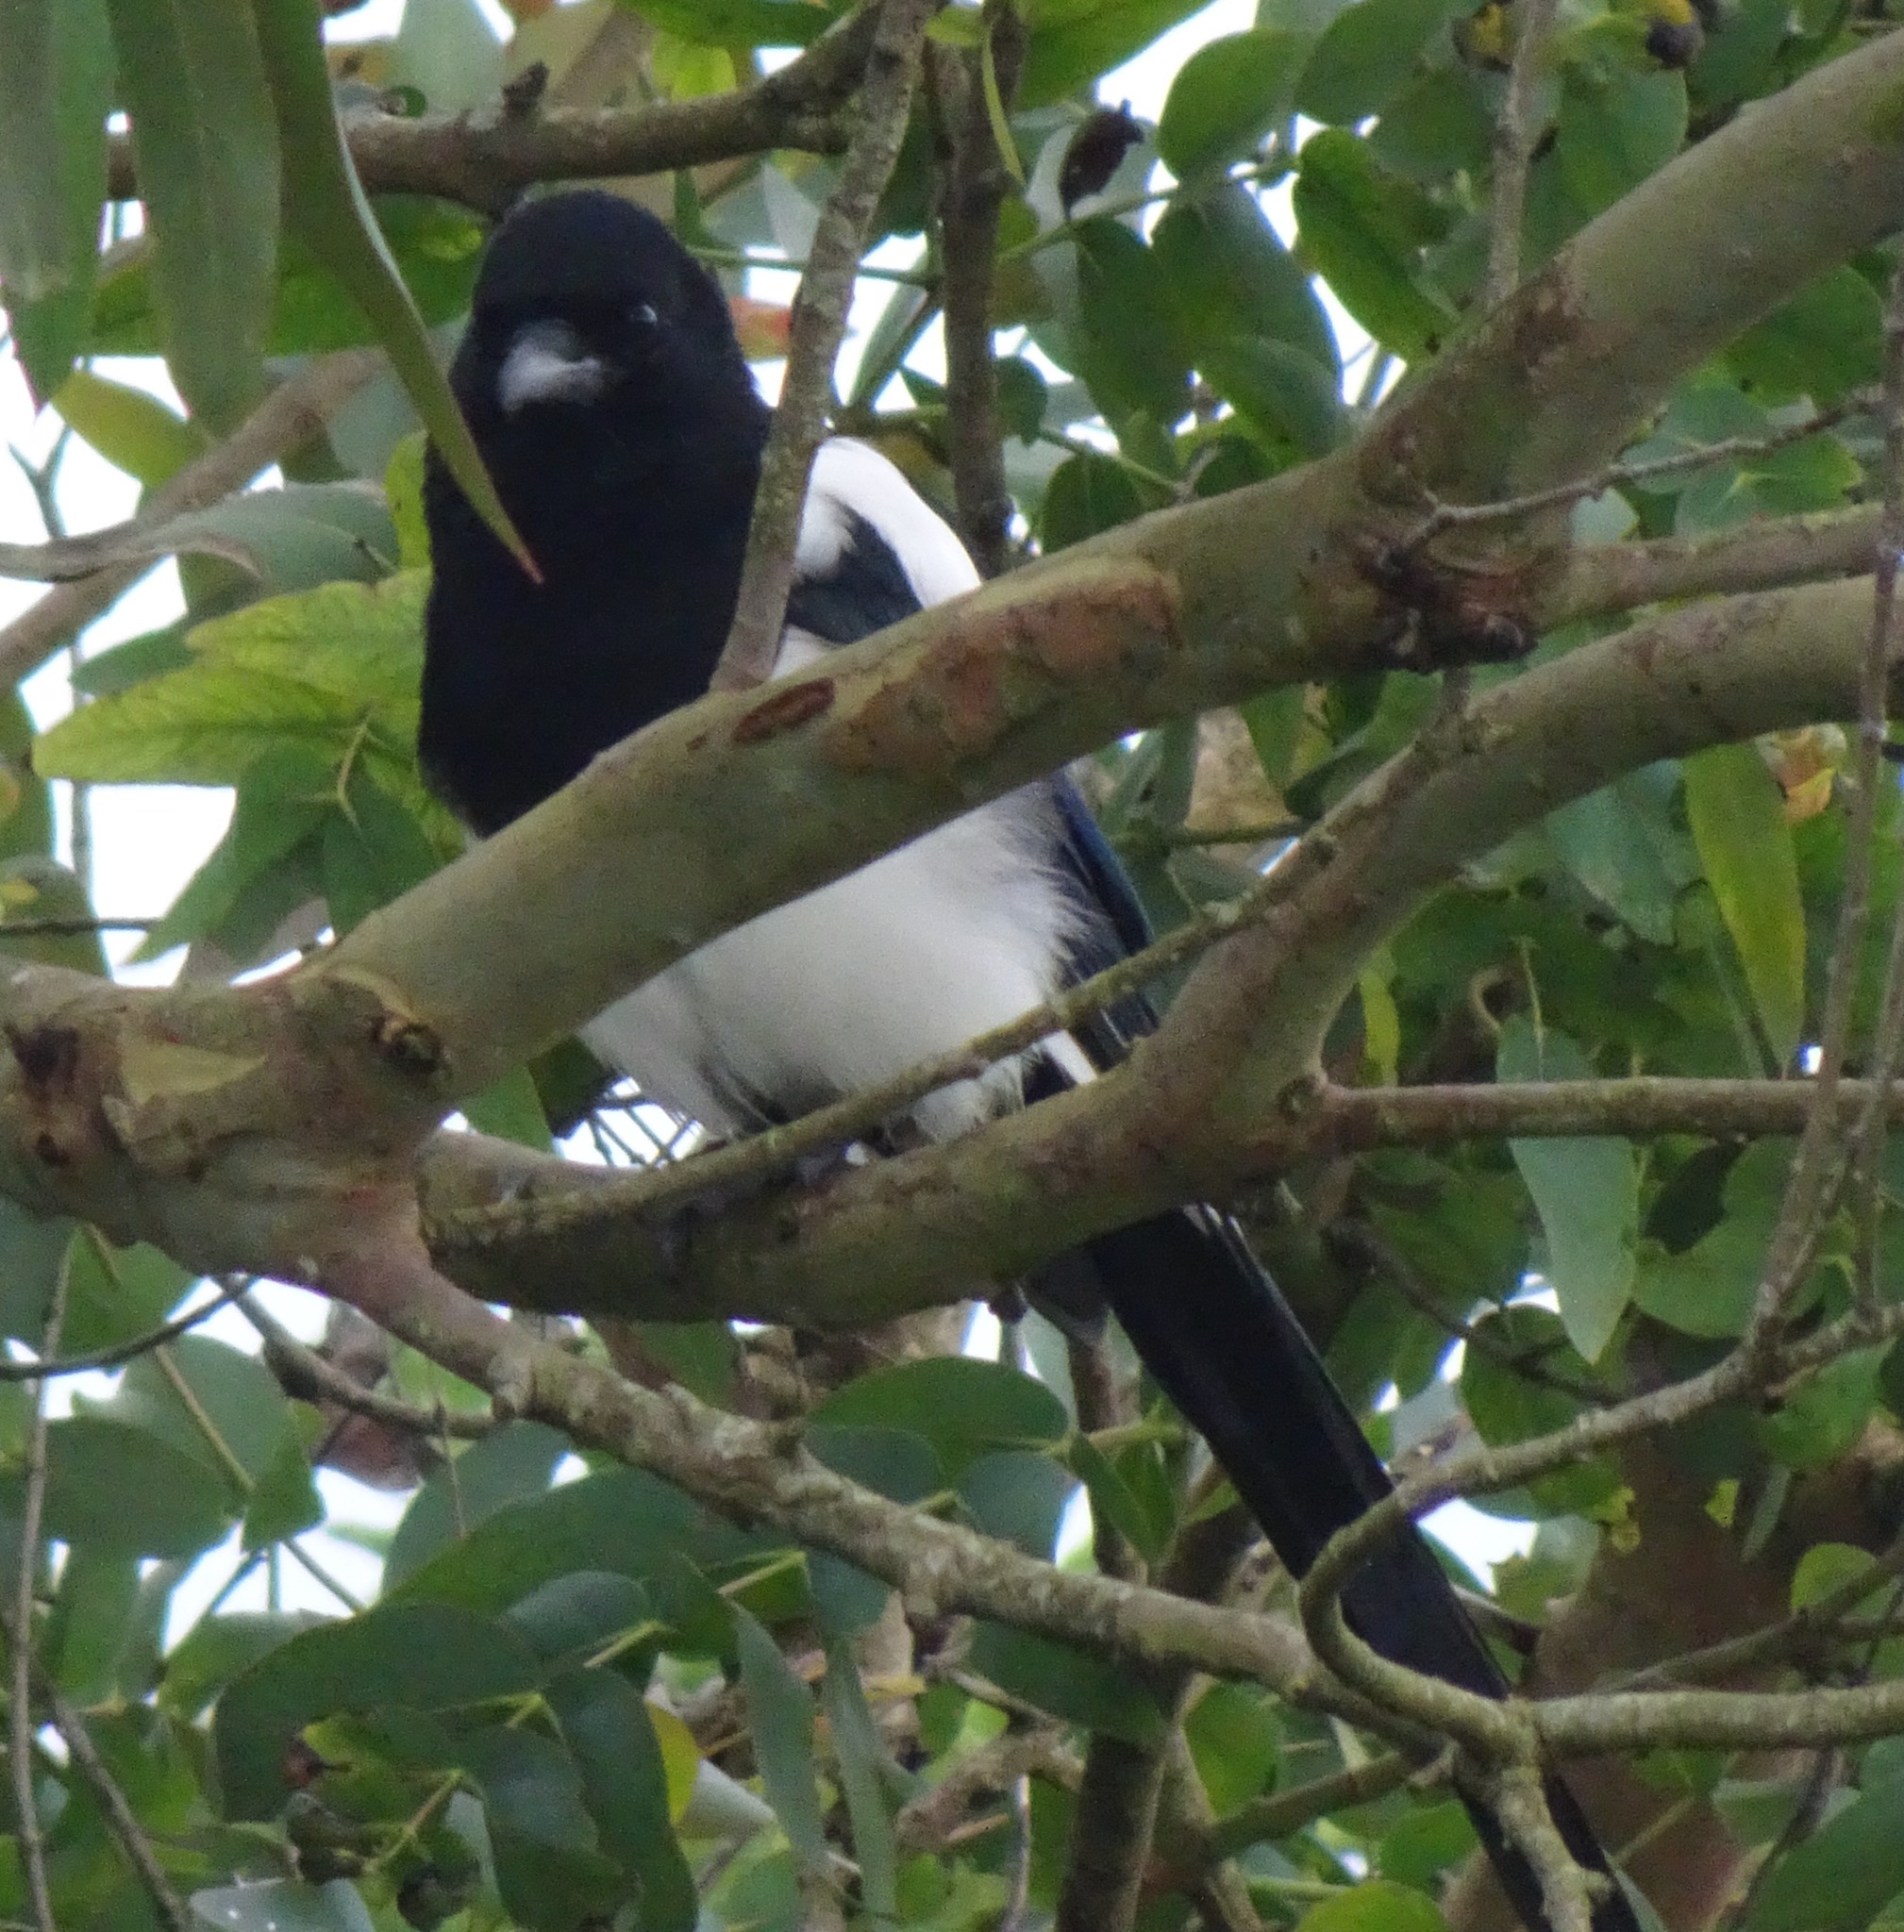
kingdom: Animalia
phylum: Chordata
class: Aves
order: Passeriformes
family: Corvidae
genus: Pica
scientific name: Pica pica
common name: Eurasian magpie
